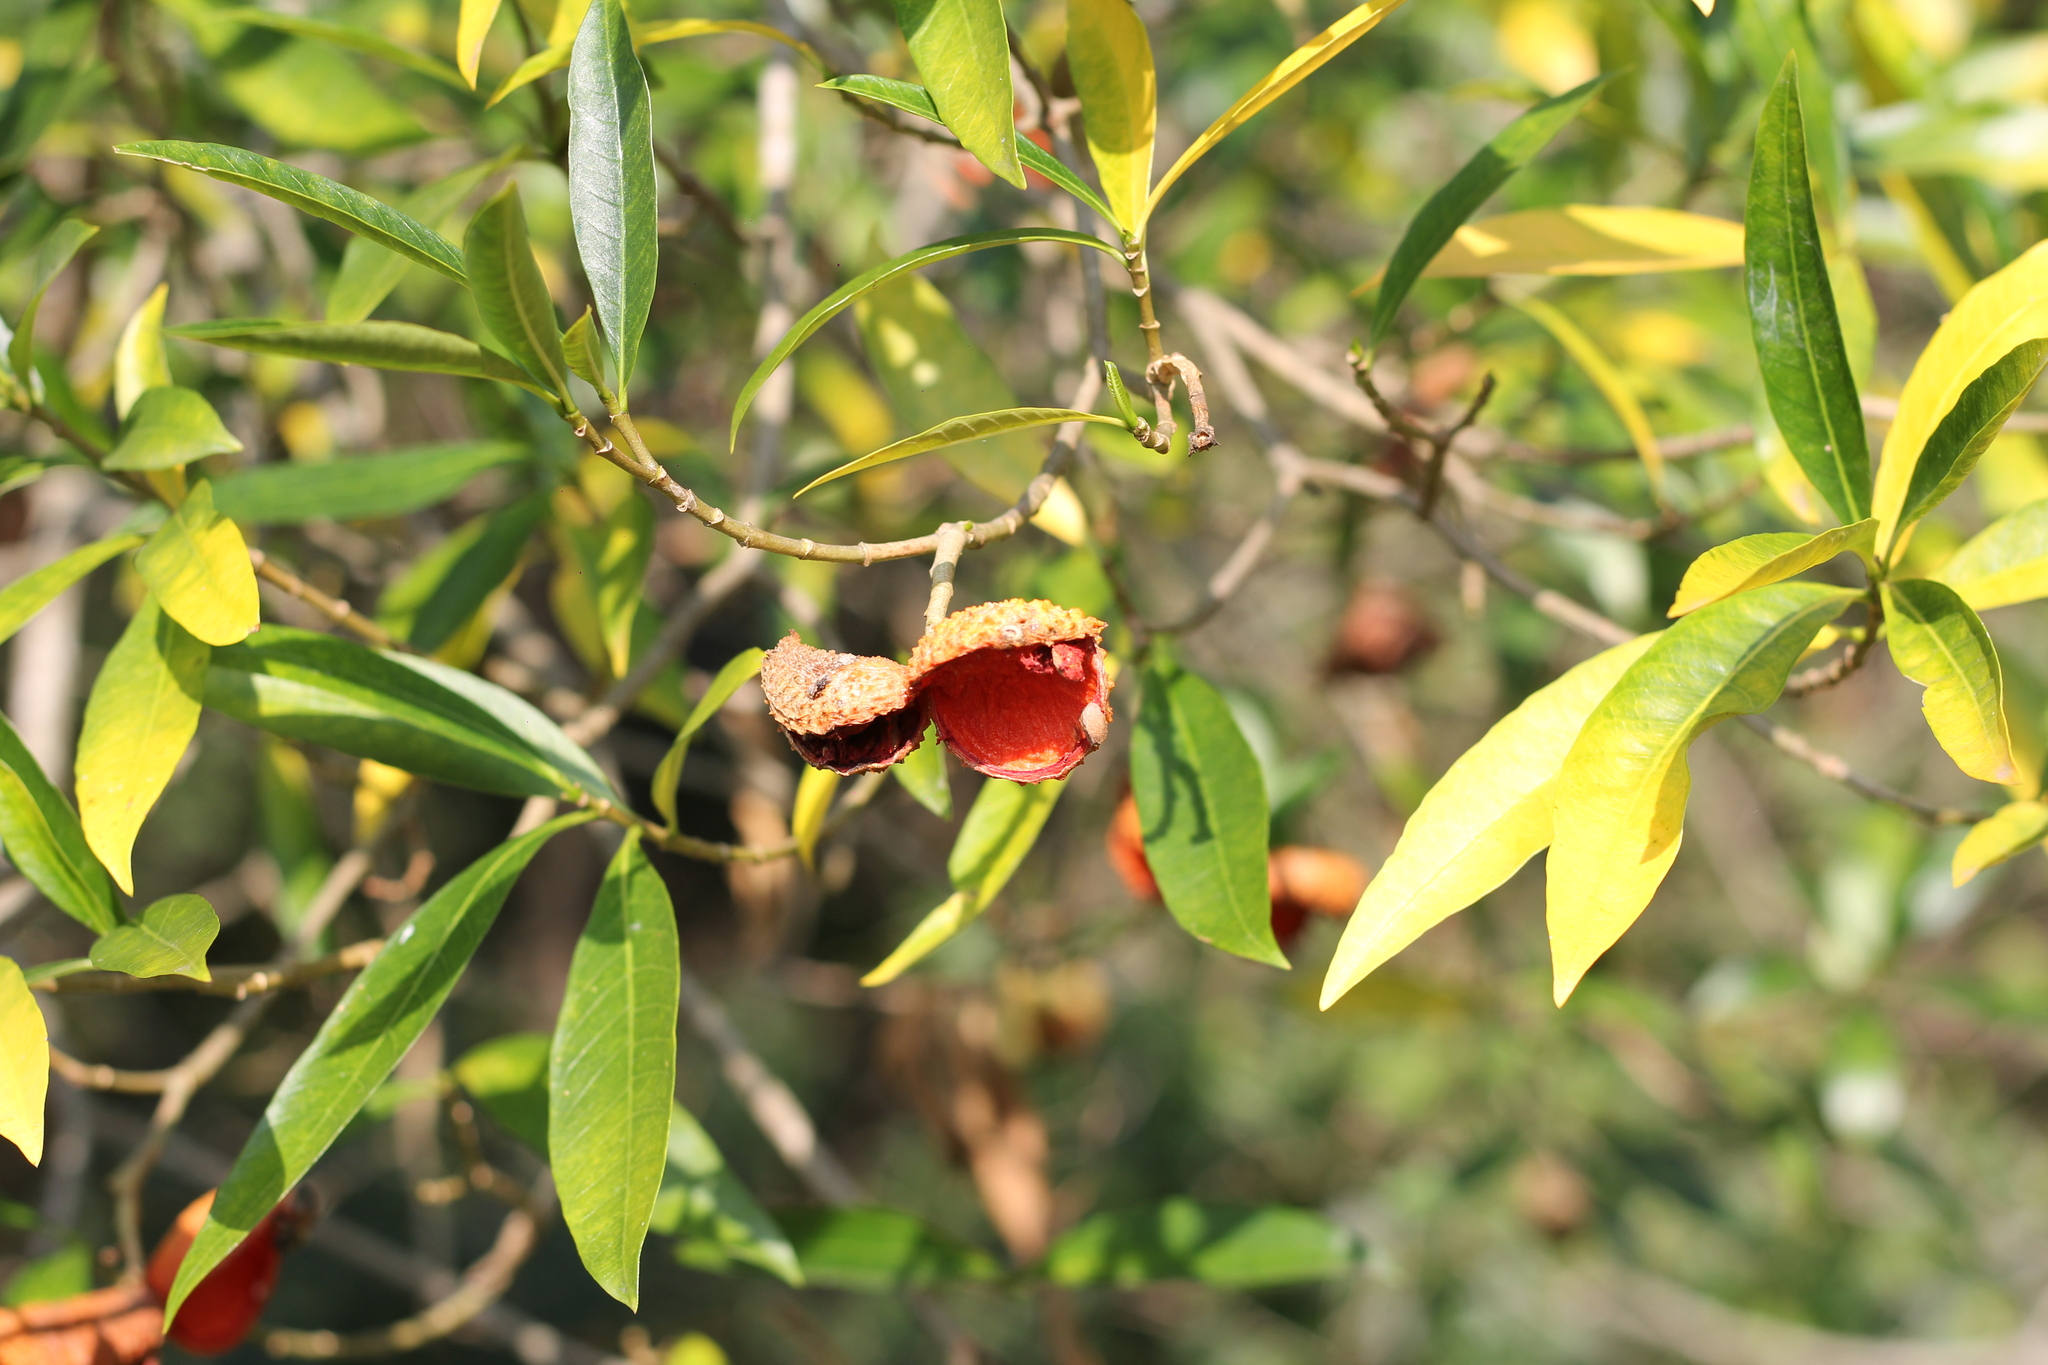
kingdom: Plantae
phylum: Tracheophyta
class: Magnoliopsida
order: Gentianales
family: Apocynaceae
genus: Tabernaemontana
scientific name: Tabernaemontana catharinensis
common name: Pinwheel-flower
